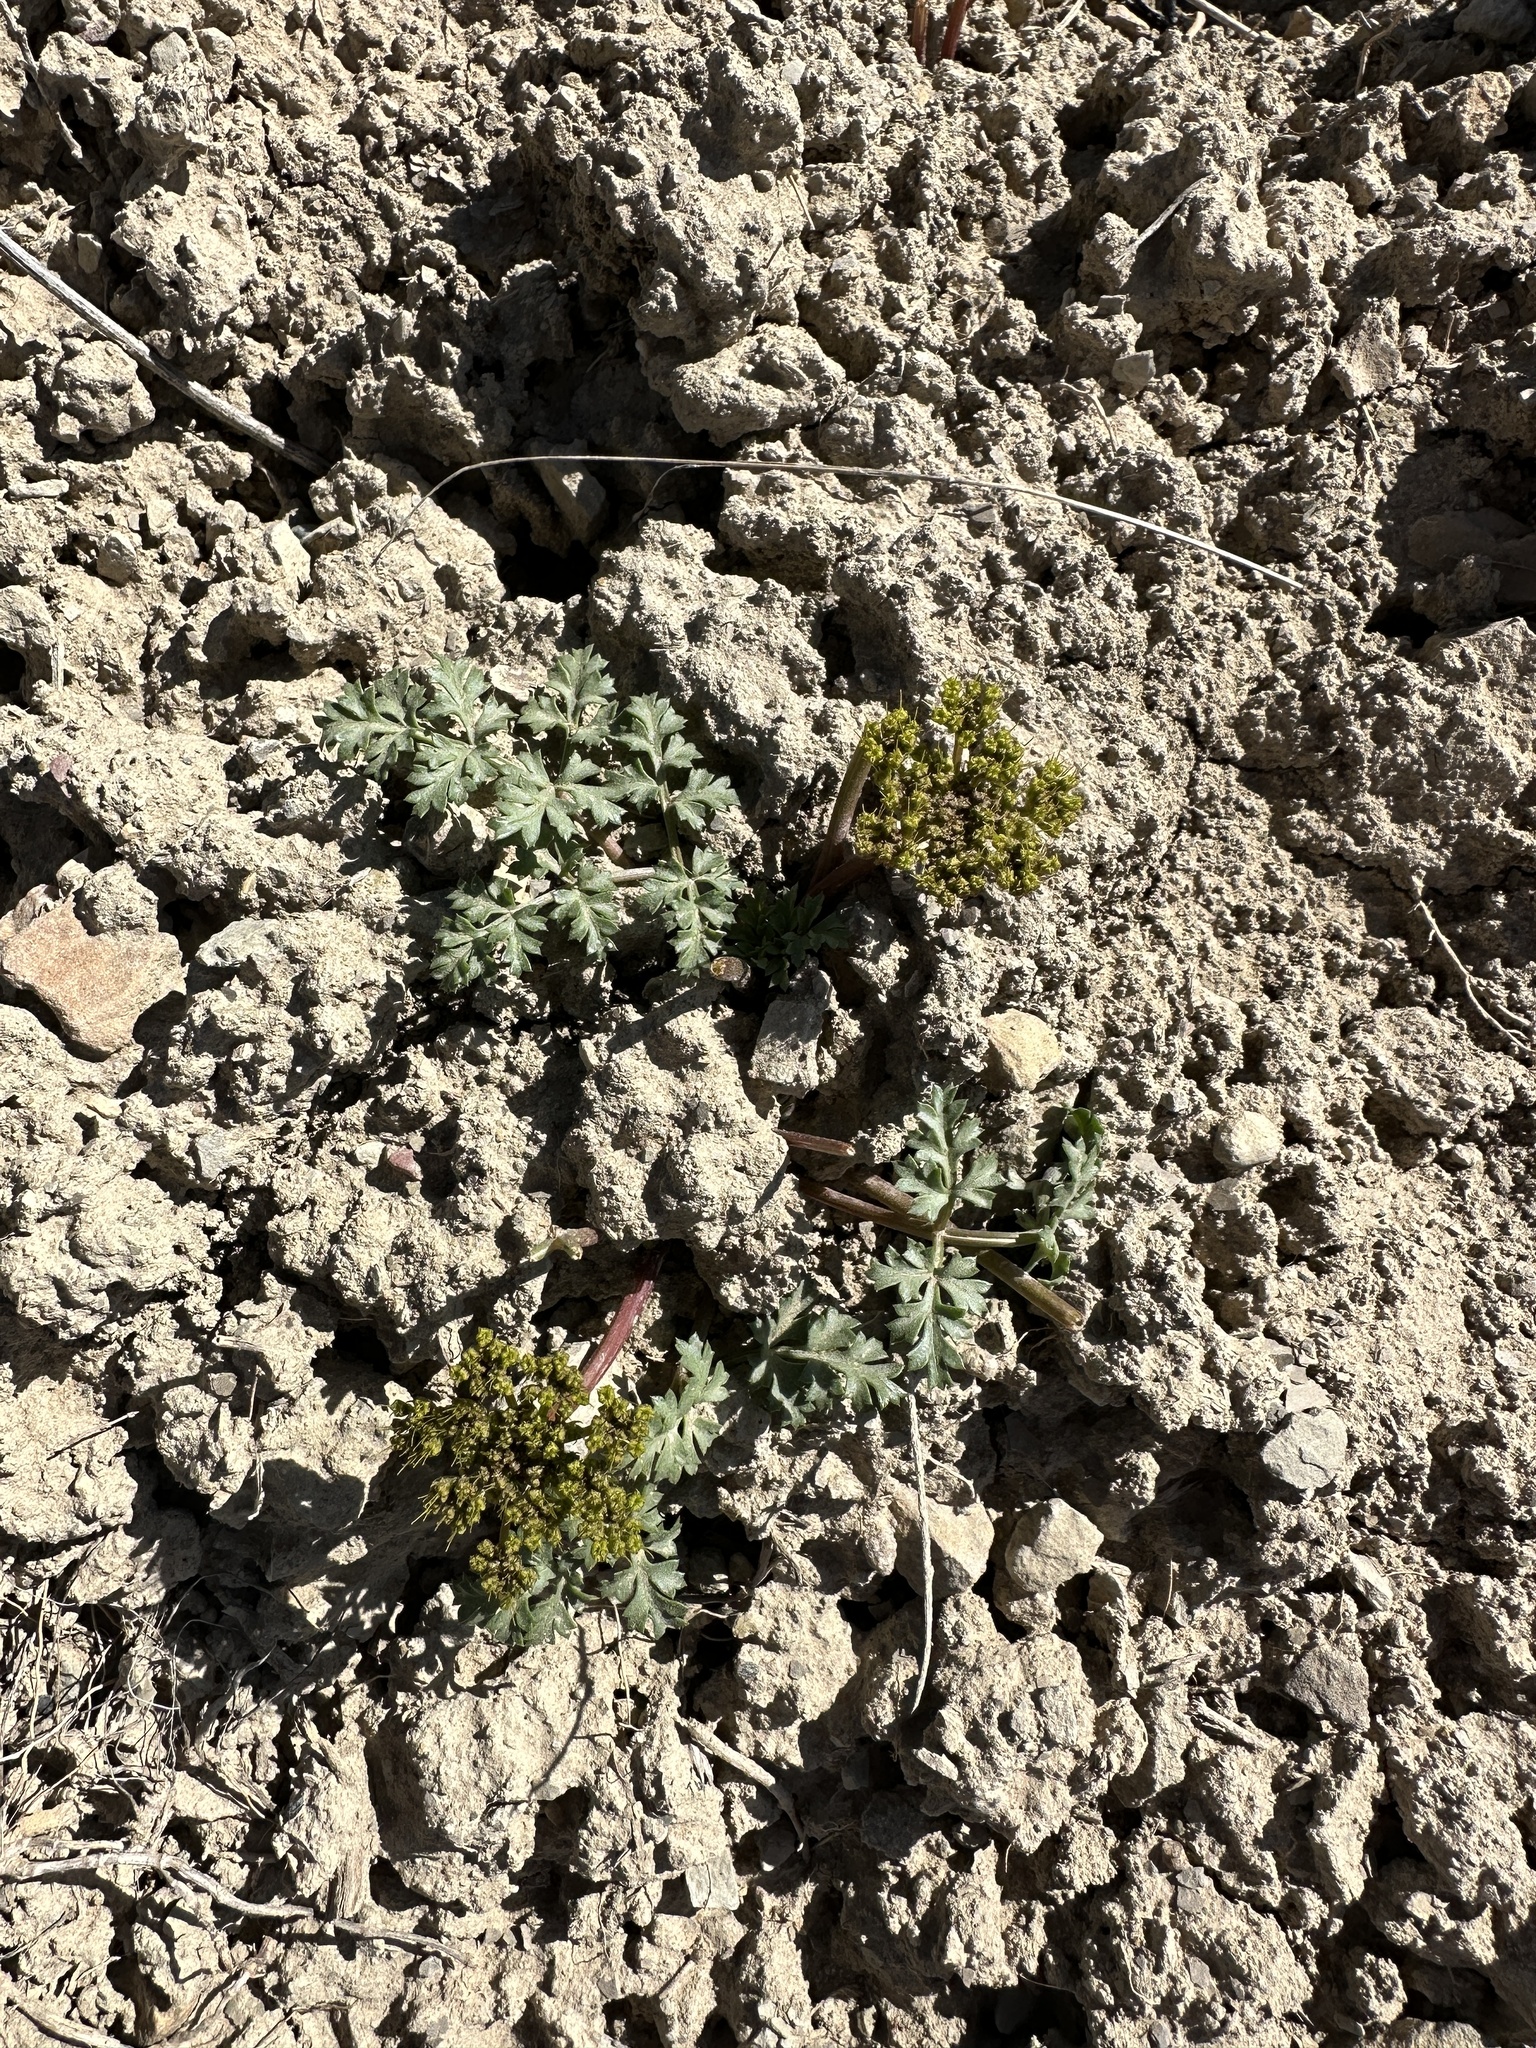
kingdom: Plantae
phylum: Tracheophyta
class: Magnoliopsida
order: Apiales
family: Apiaceae
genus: Aulospermum
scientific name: Aulospermum purpureum
